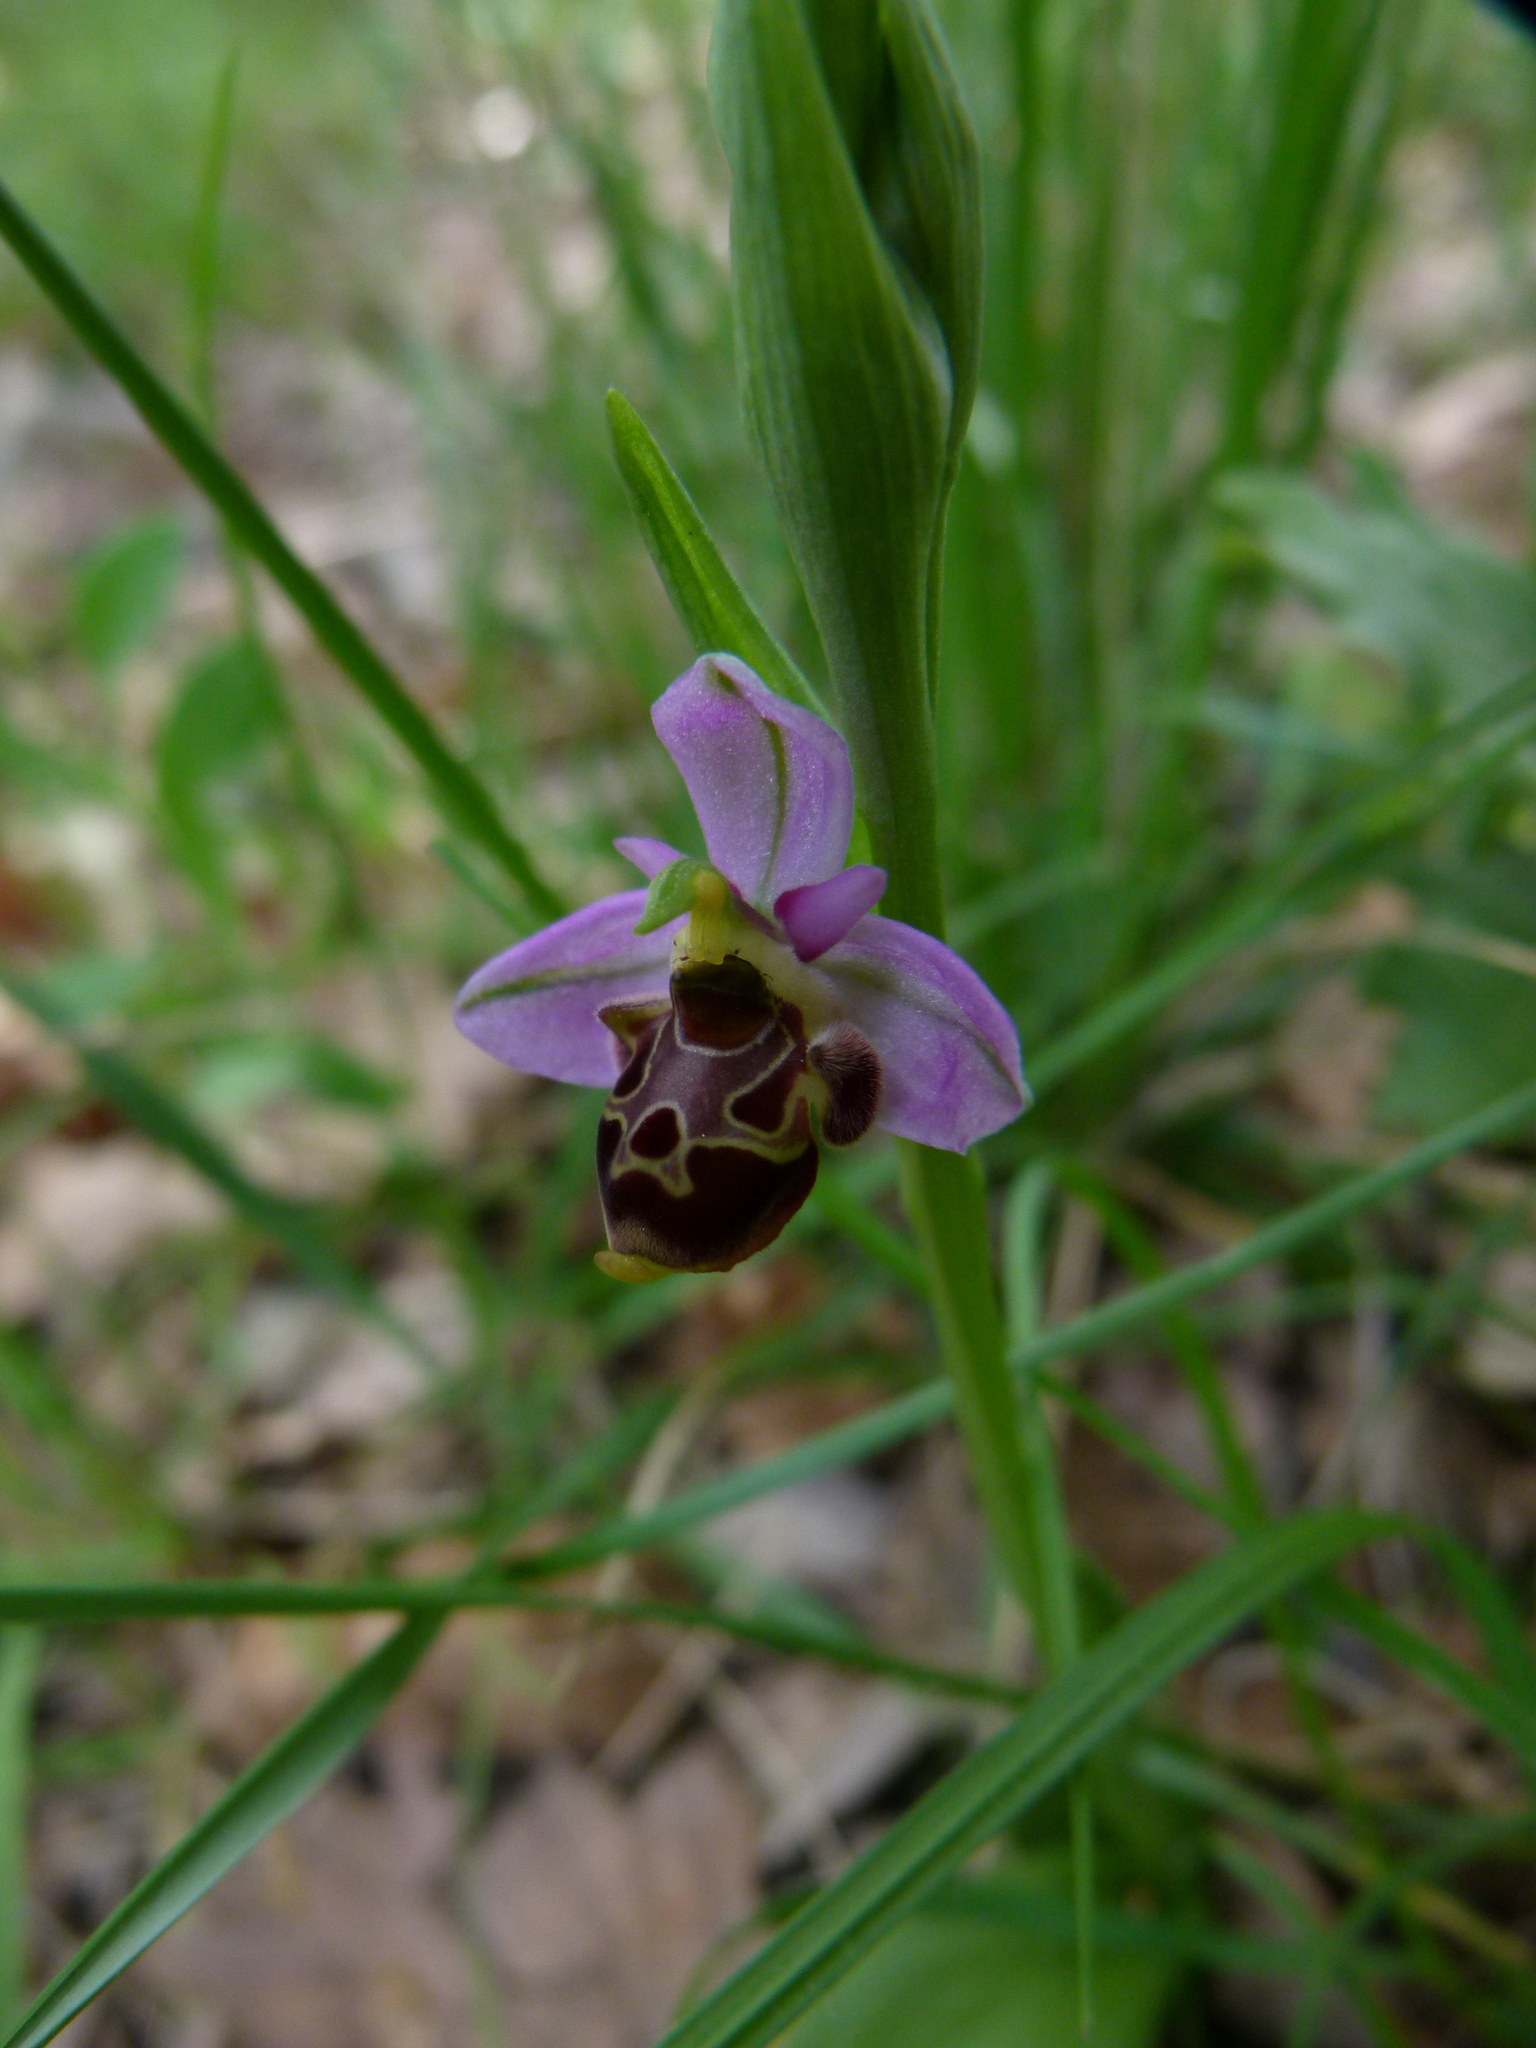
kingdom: Plantae
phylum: Tracheophyta
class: Liliopsida
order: Asparagales
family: Orchidaceae
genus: Ophrys
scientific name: Ophrys scolopax
